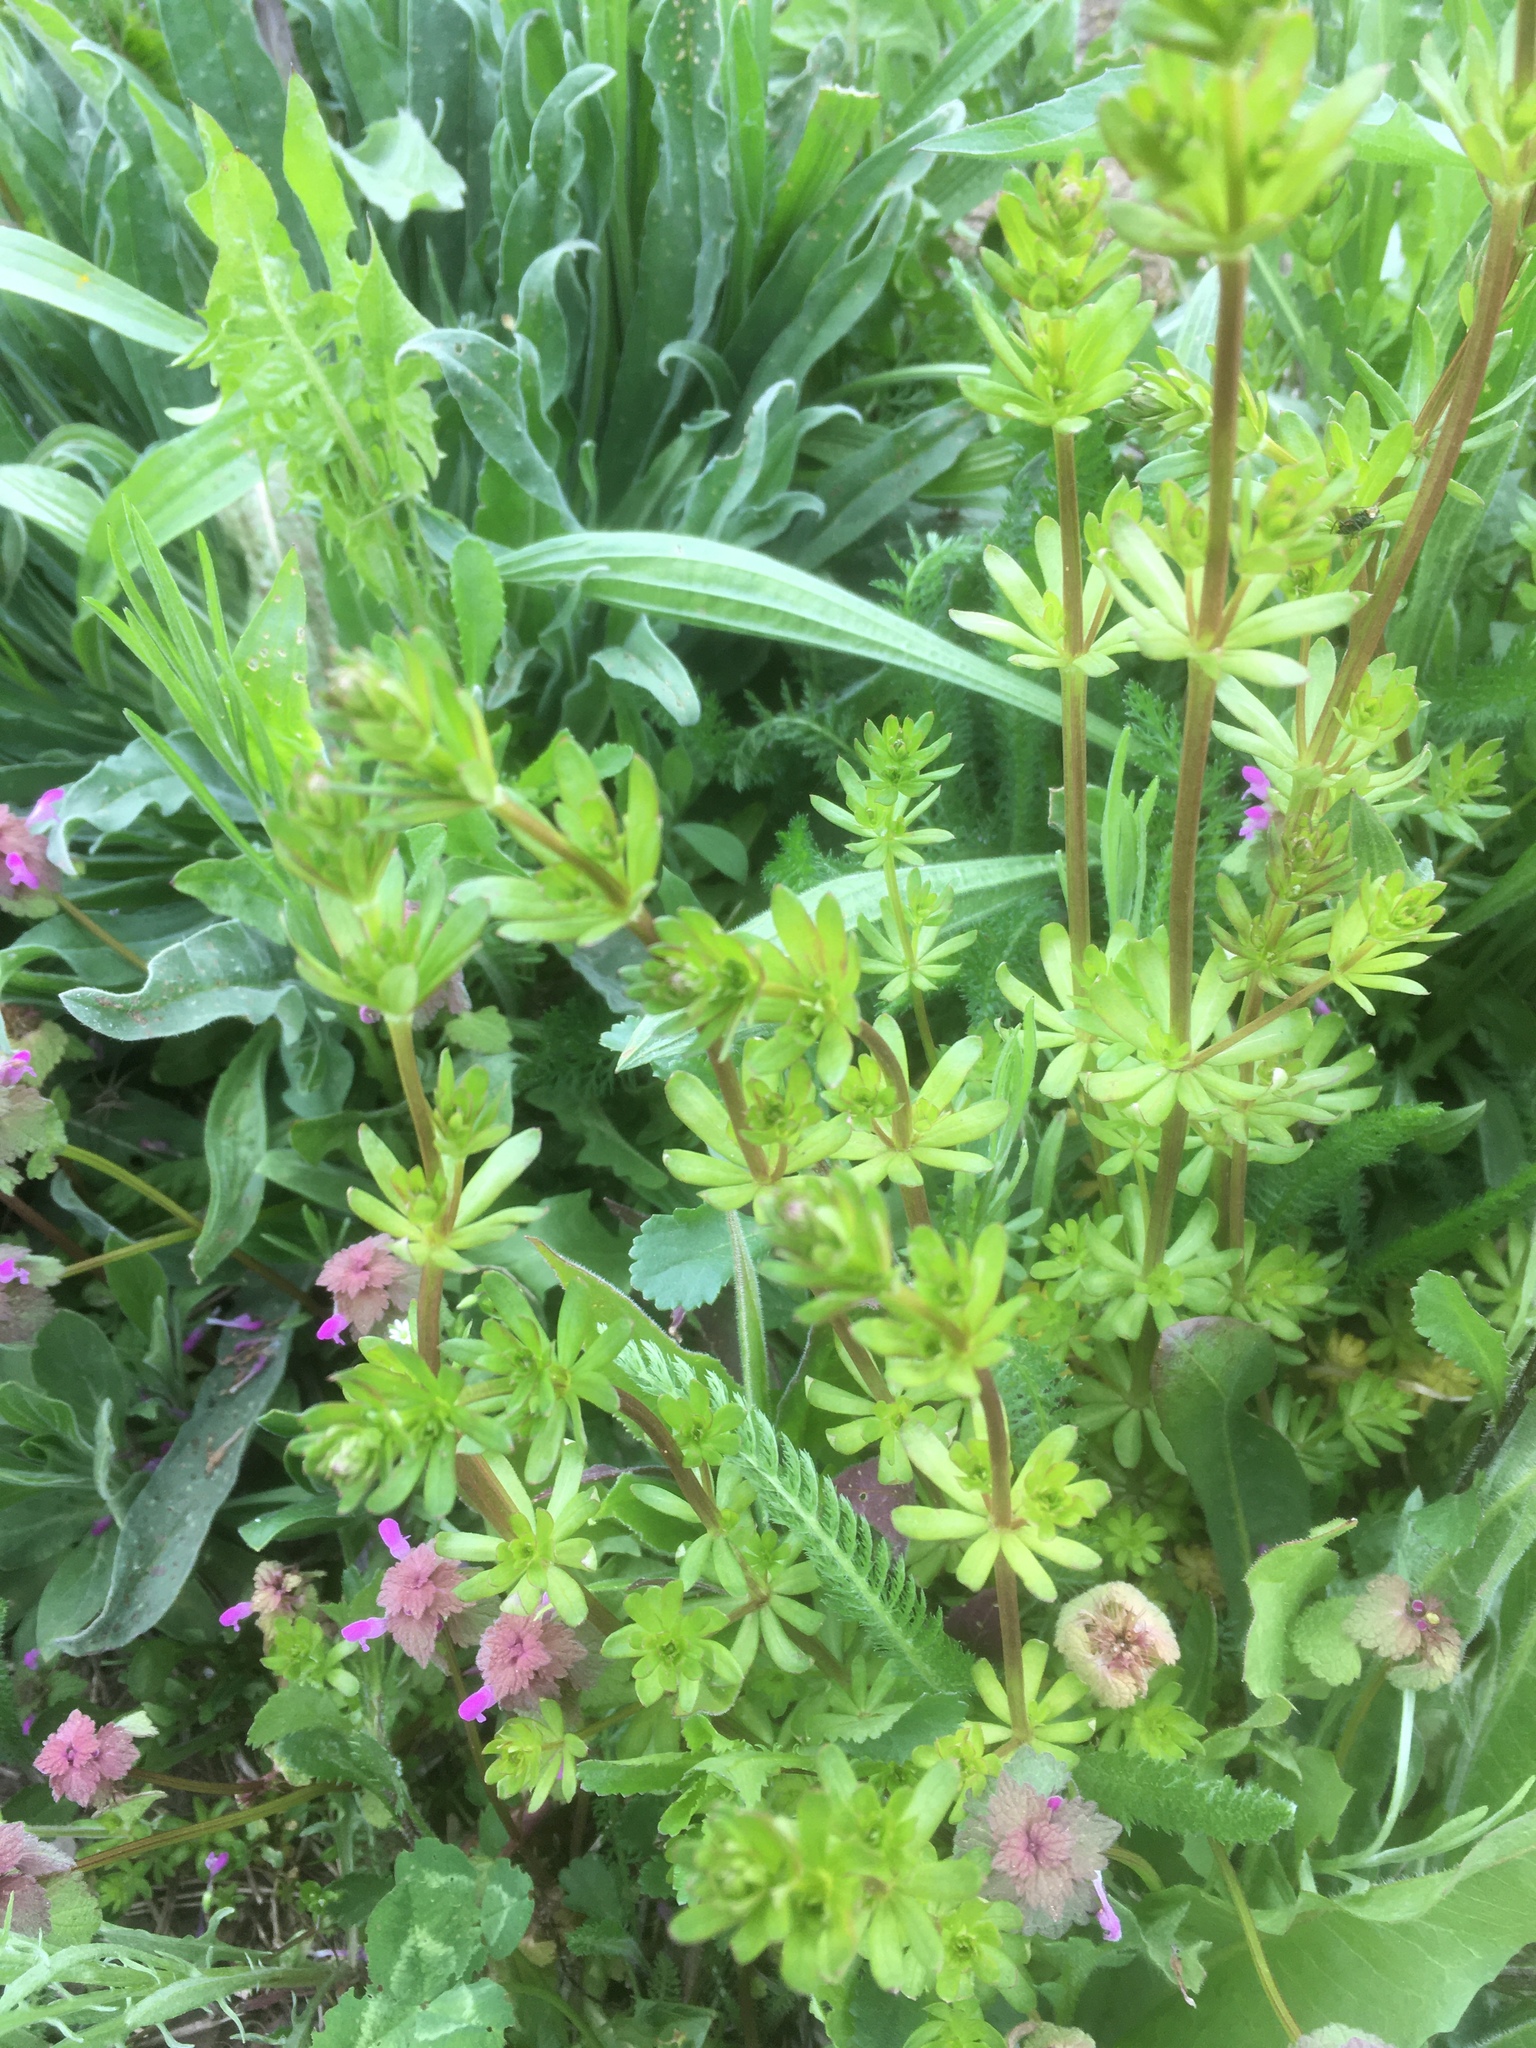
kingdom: Plantae
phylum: Tracheophyta
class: Magnoliopsida
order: Gentianales
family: Rubiaceae
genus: Galium
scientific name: Galium mollugo
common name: Hedge bedstraw
